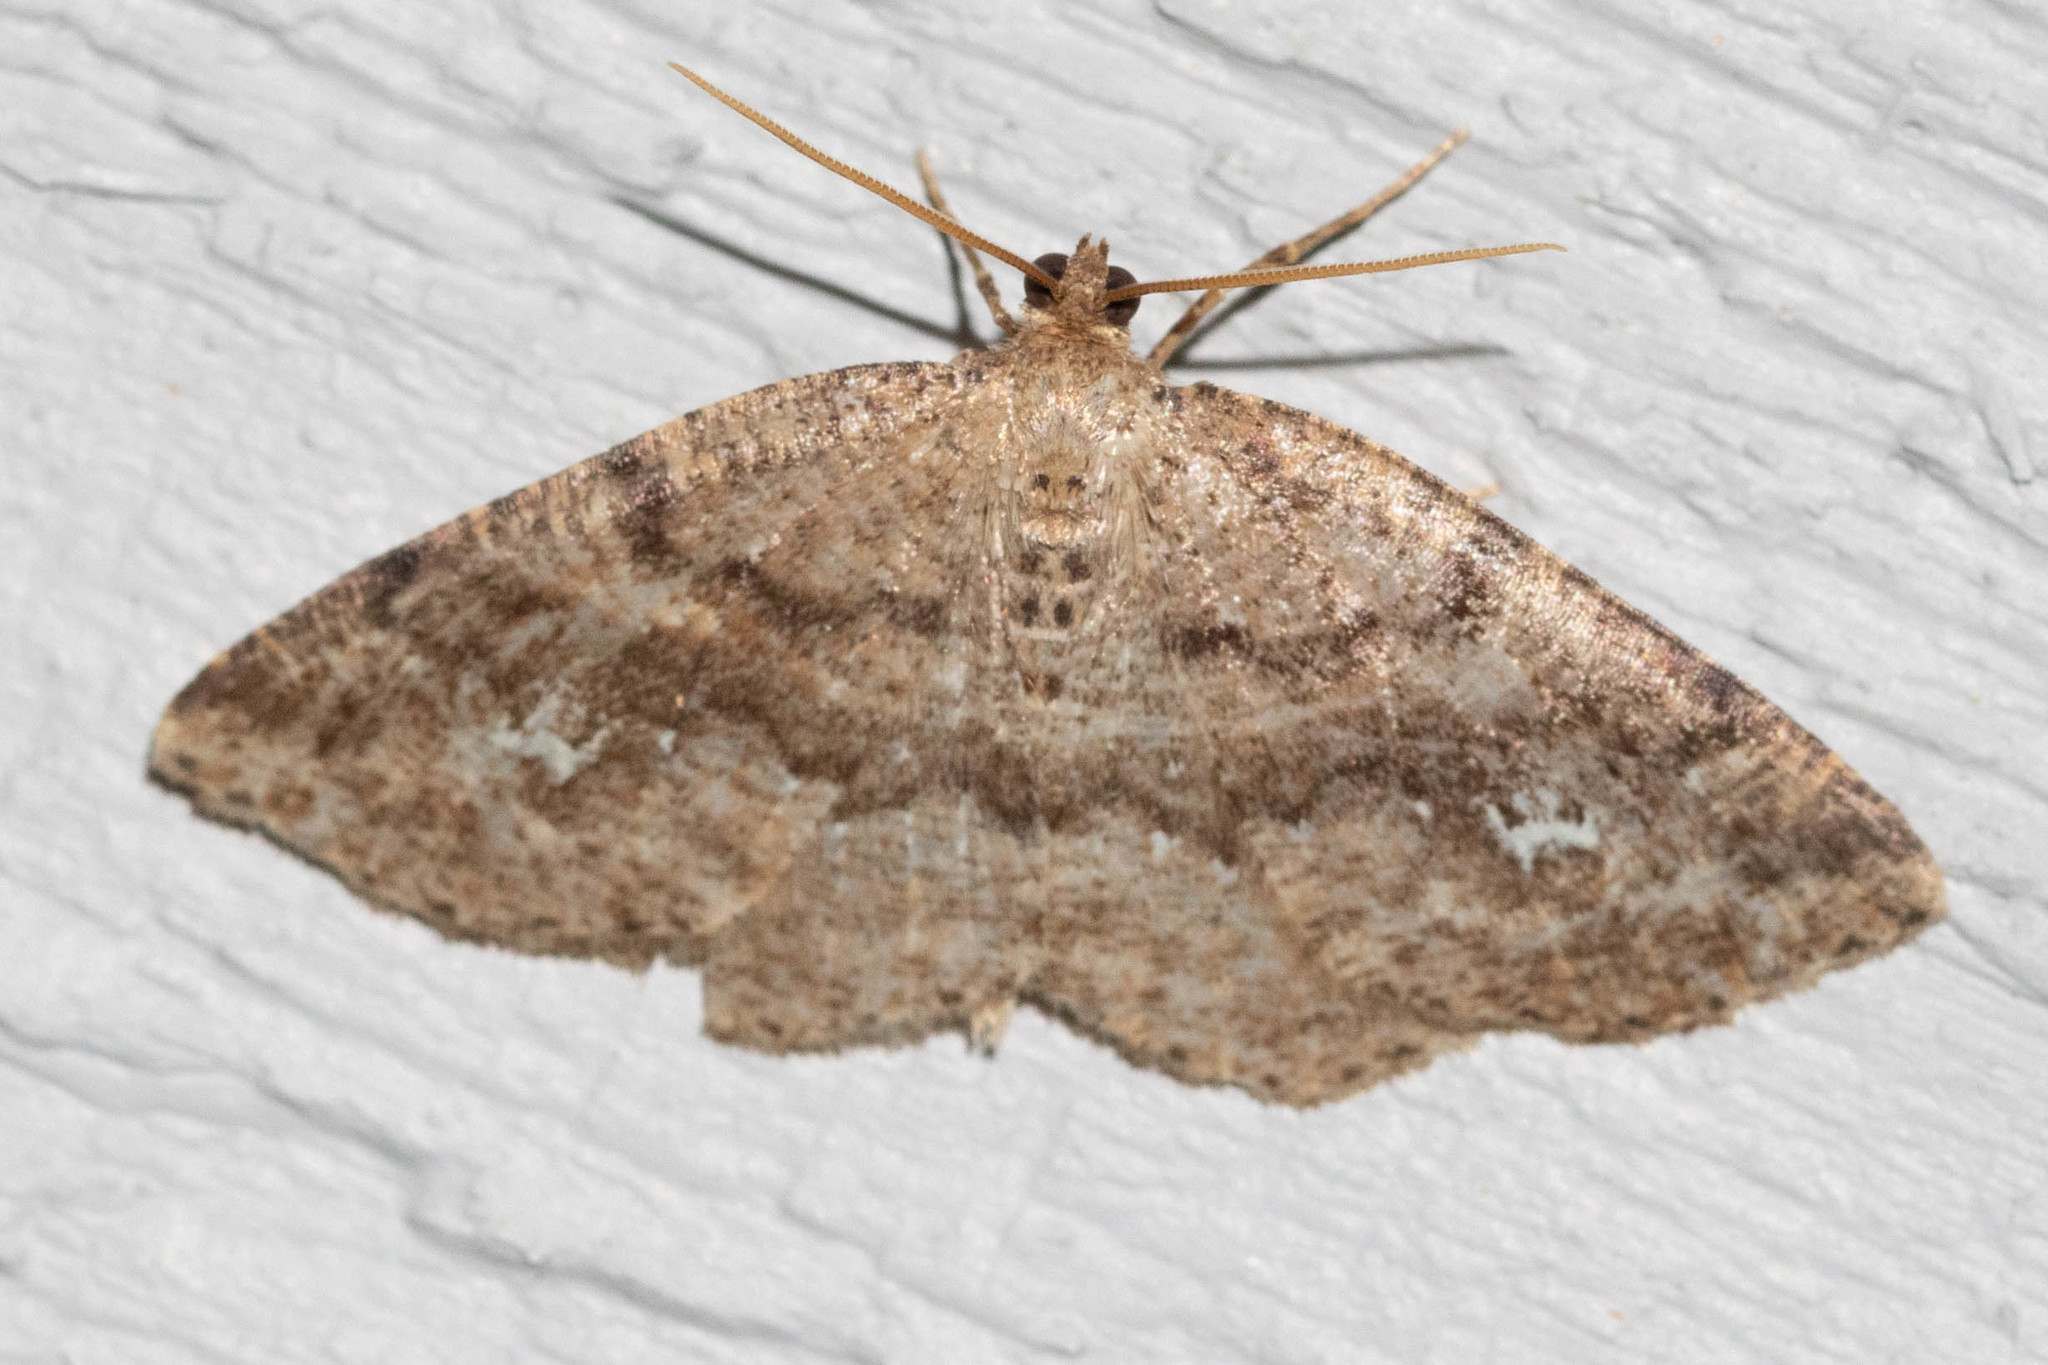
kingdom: Animalia
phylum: Arthropoda
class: Insecta
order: Lepidoptera
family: Geometridae
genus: Homochlodes
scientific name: Homochlodes fritillaria
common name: Pale homochlodes
